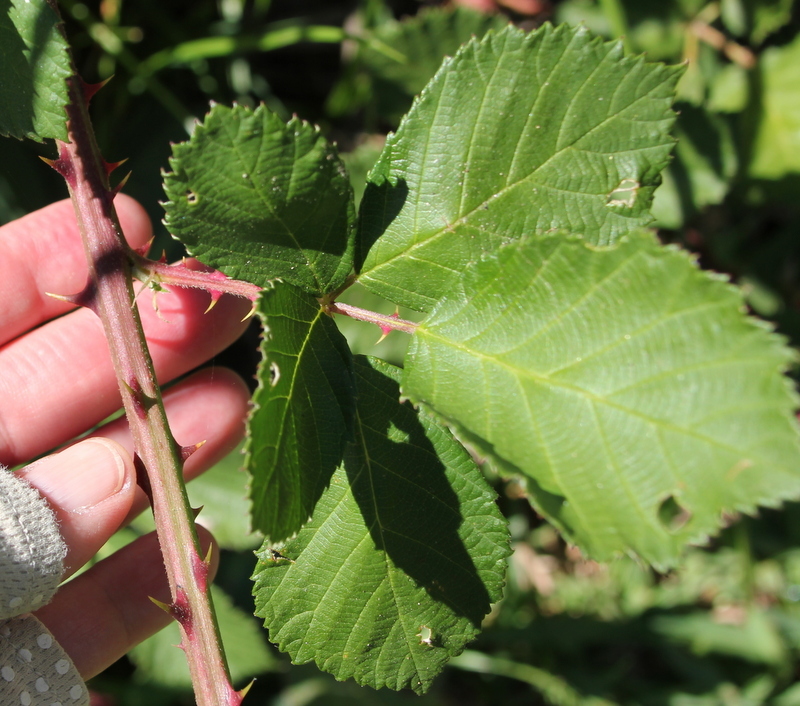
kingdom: Plantae
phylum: Tracheophyta
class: Magnoliopsida
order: Rosales
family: Rosaceae
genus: Rubus
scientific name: Rubus armeniacus
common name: Himalayan blackberry
